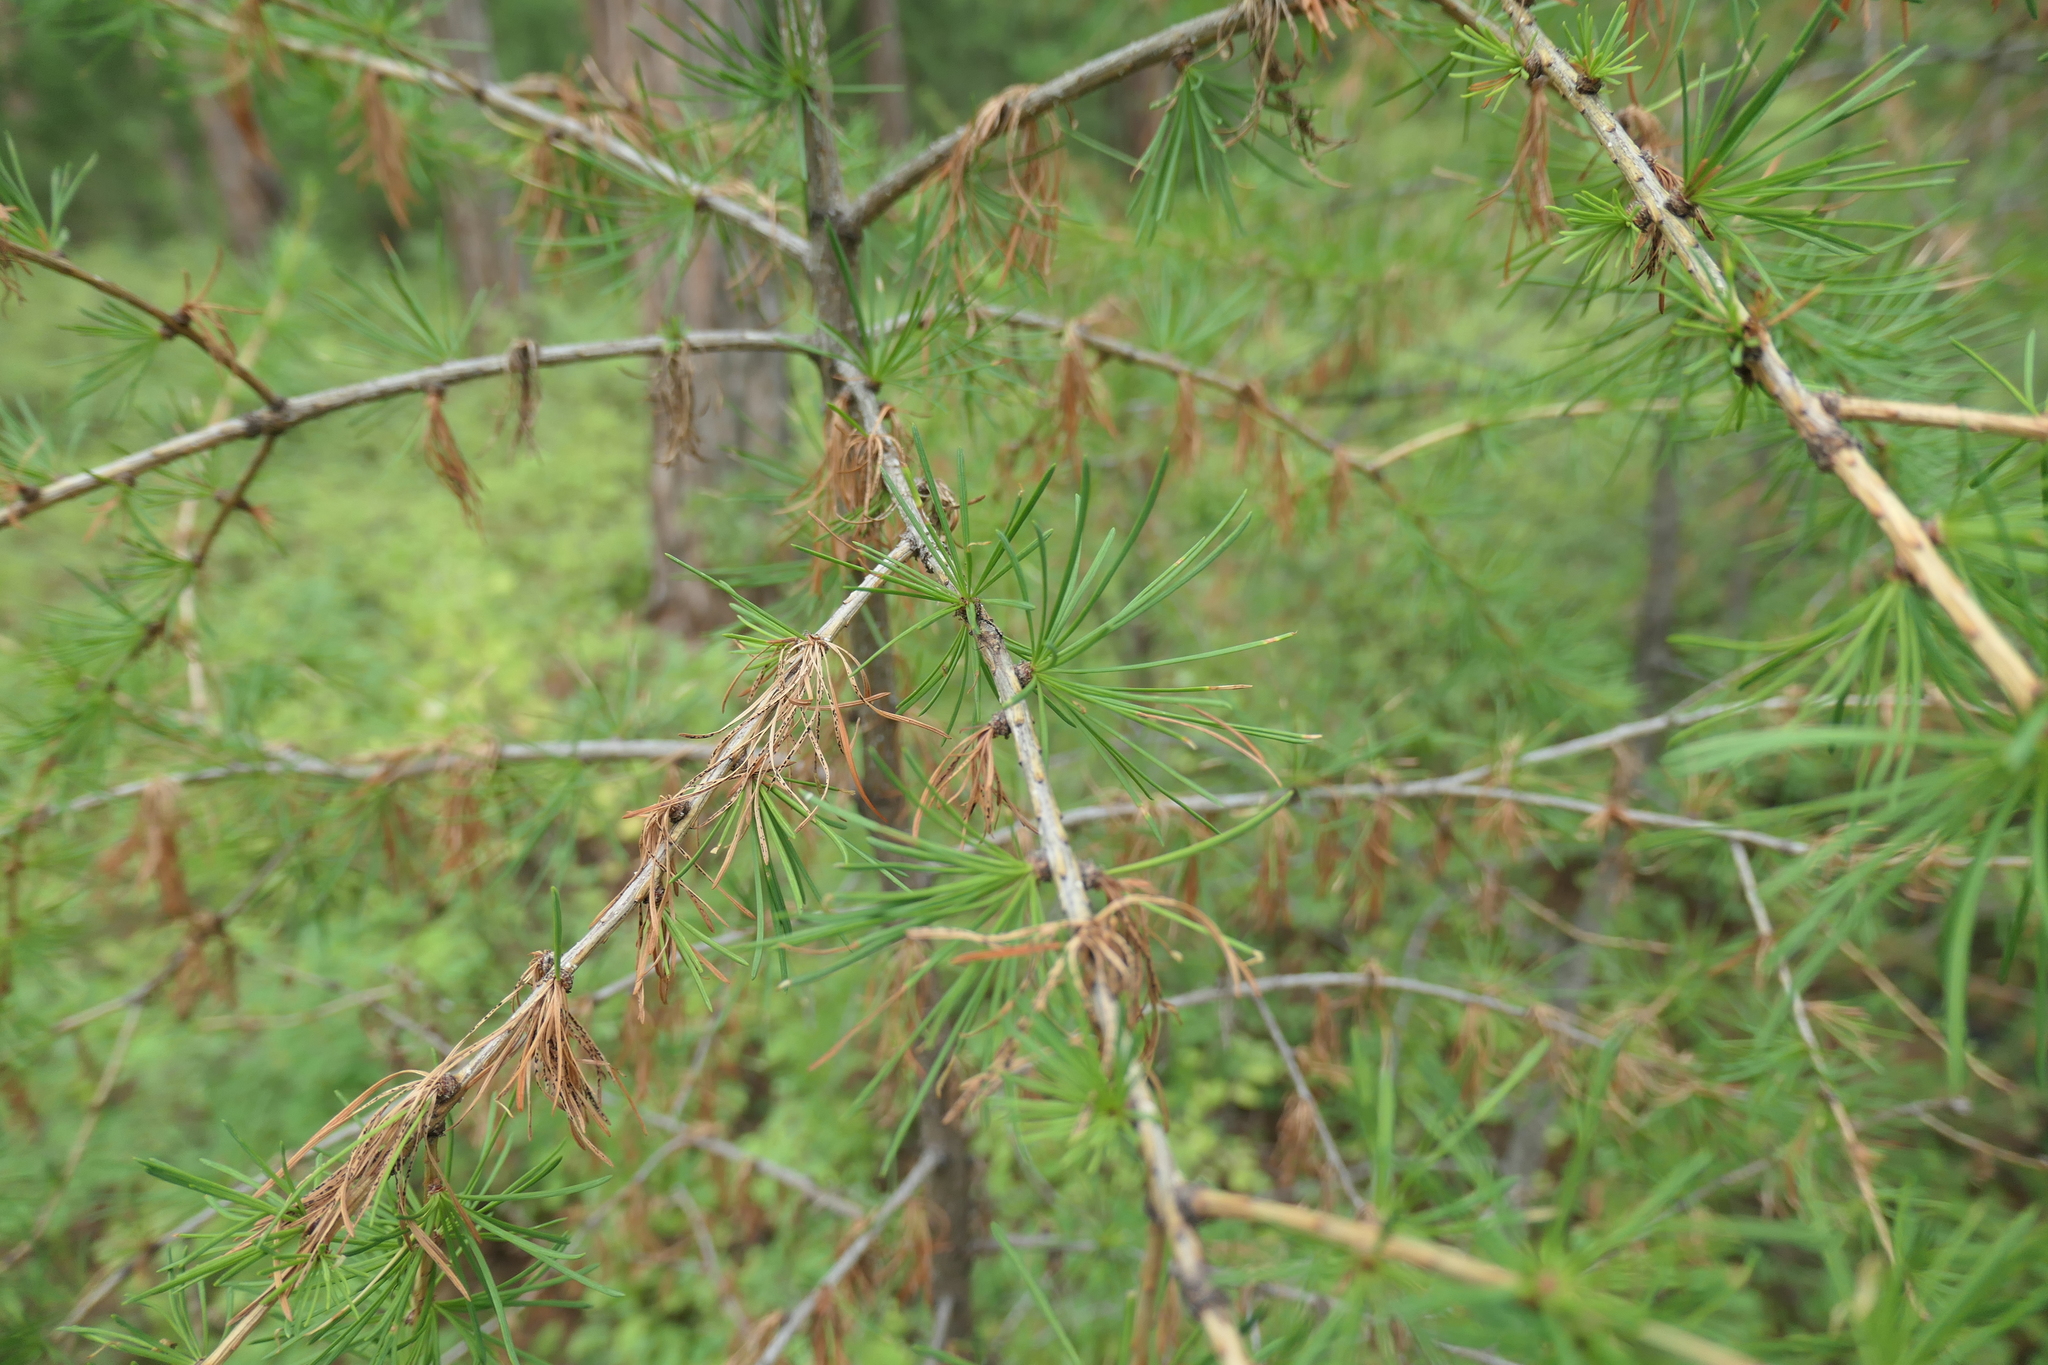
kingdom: Plantae
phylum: Tracheophyta
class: Pinopsida
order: Pinales
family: Pinaceae
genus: Larix
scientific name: Larix occidentalis
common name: Western larch
